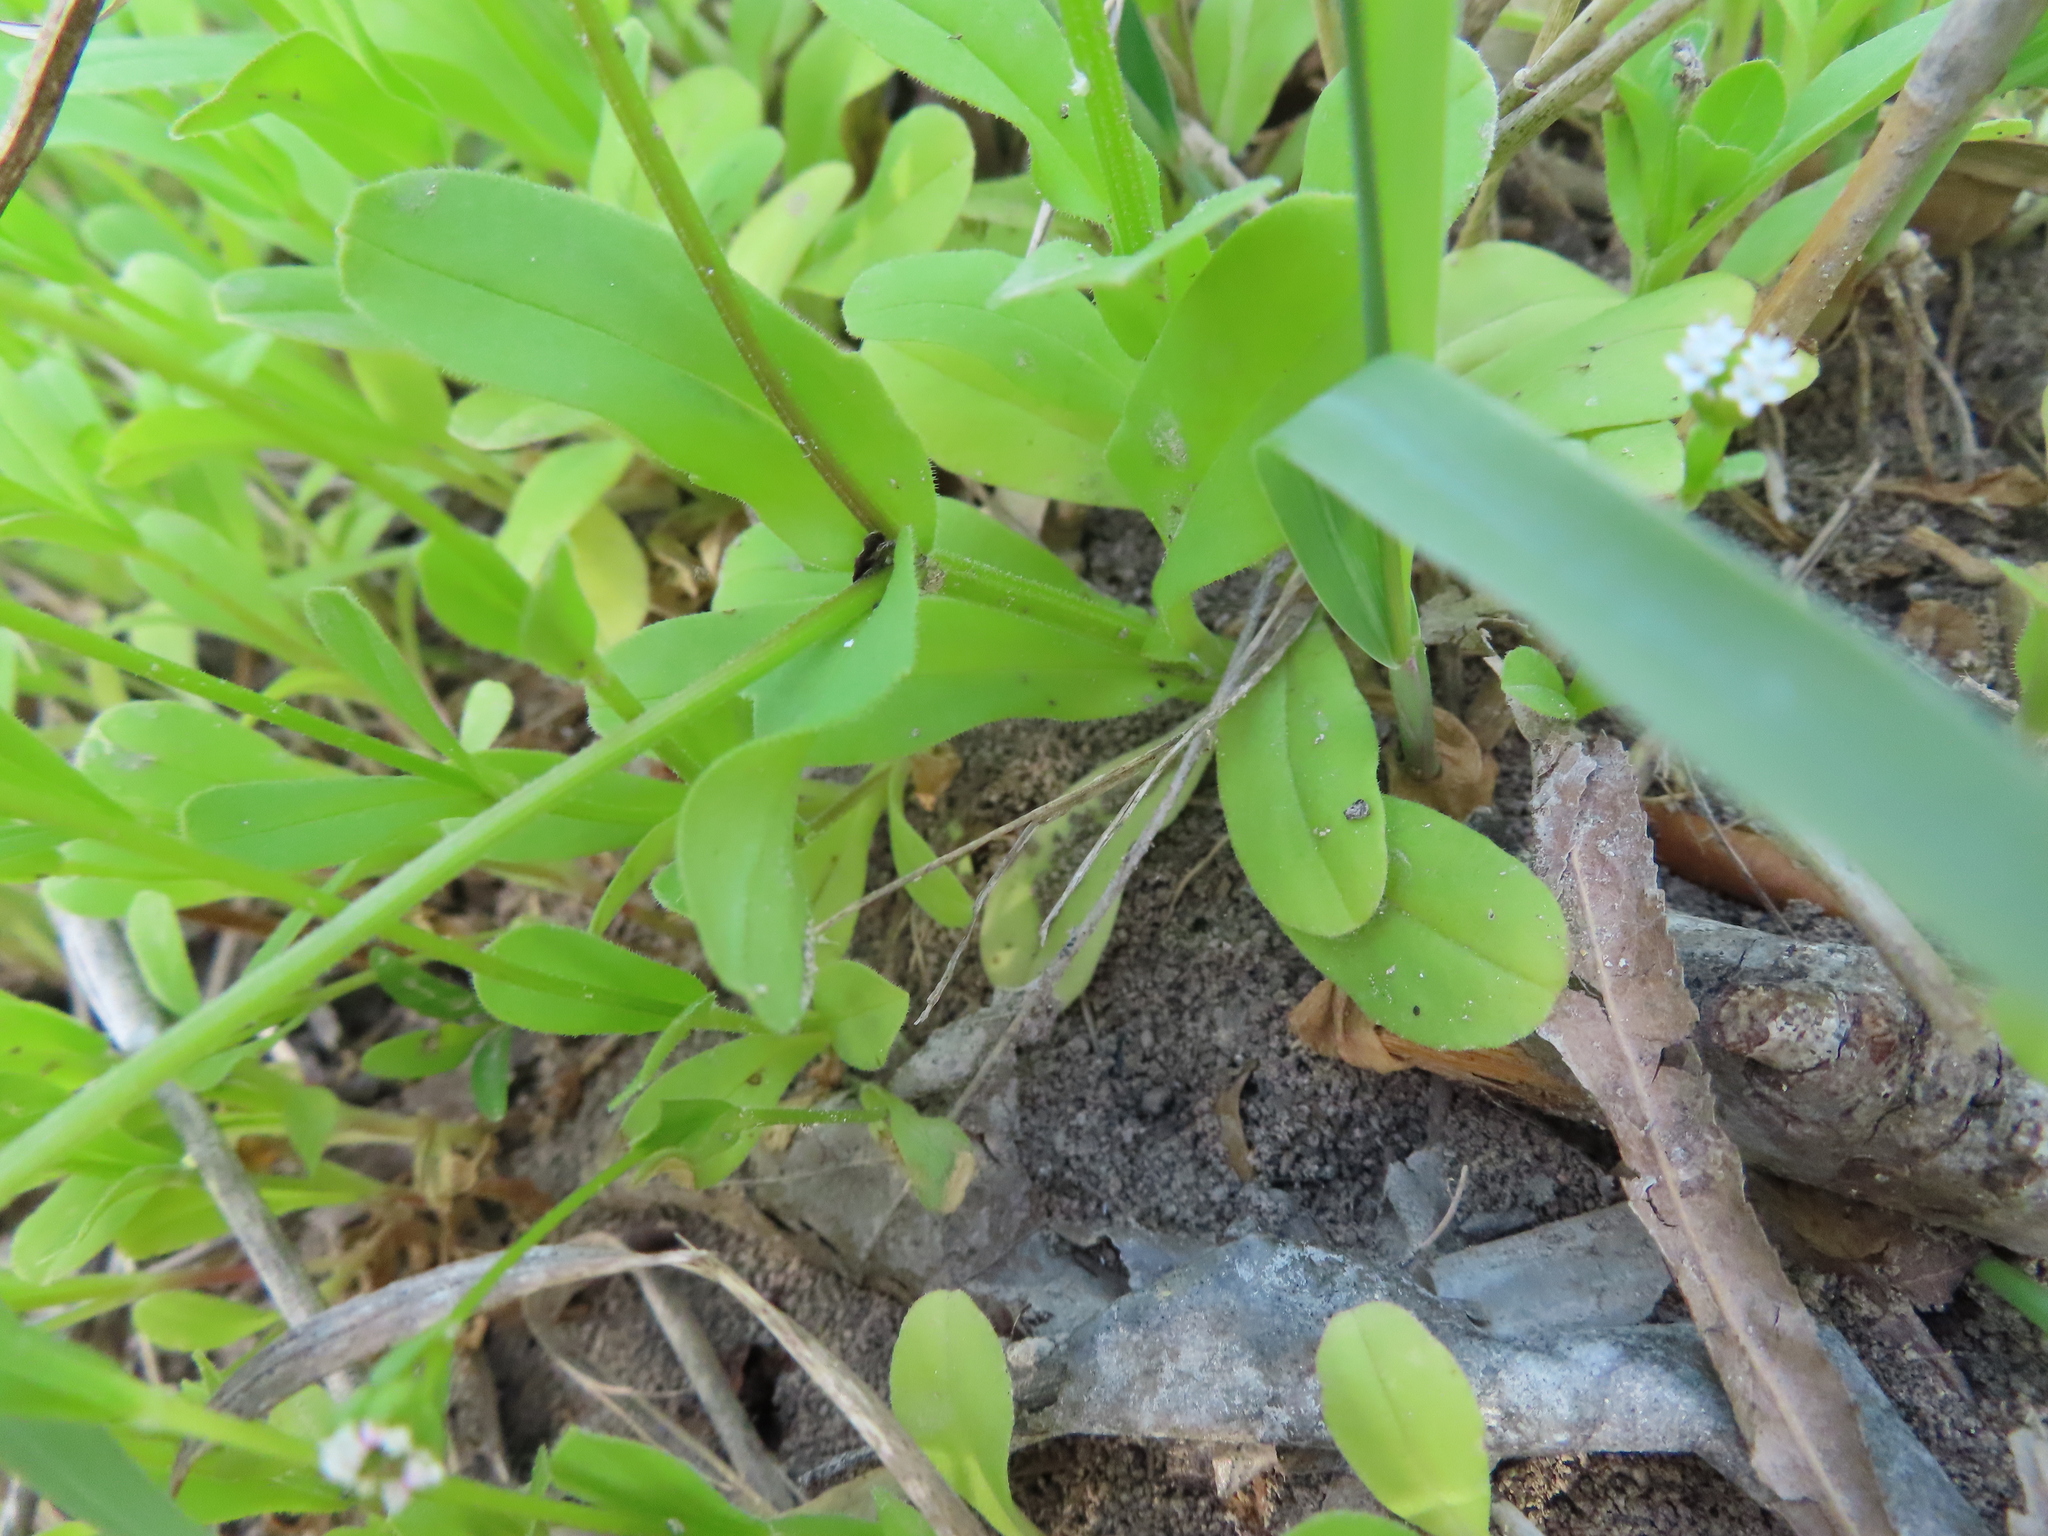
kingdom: Plantae
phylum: Tracheophyta
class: Magnoliopsida
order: Dipsacales
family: Caprifoliaceae
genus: Valerianella
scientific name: Valerianella radiata
